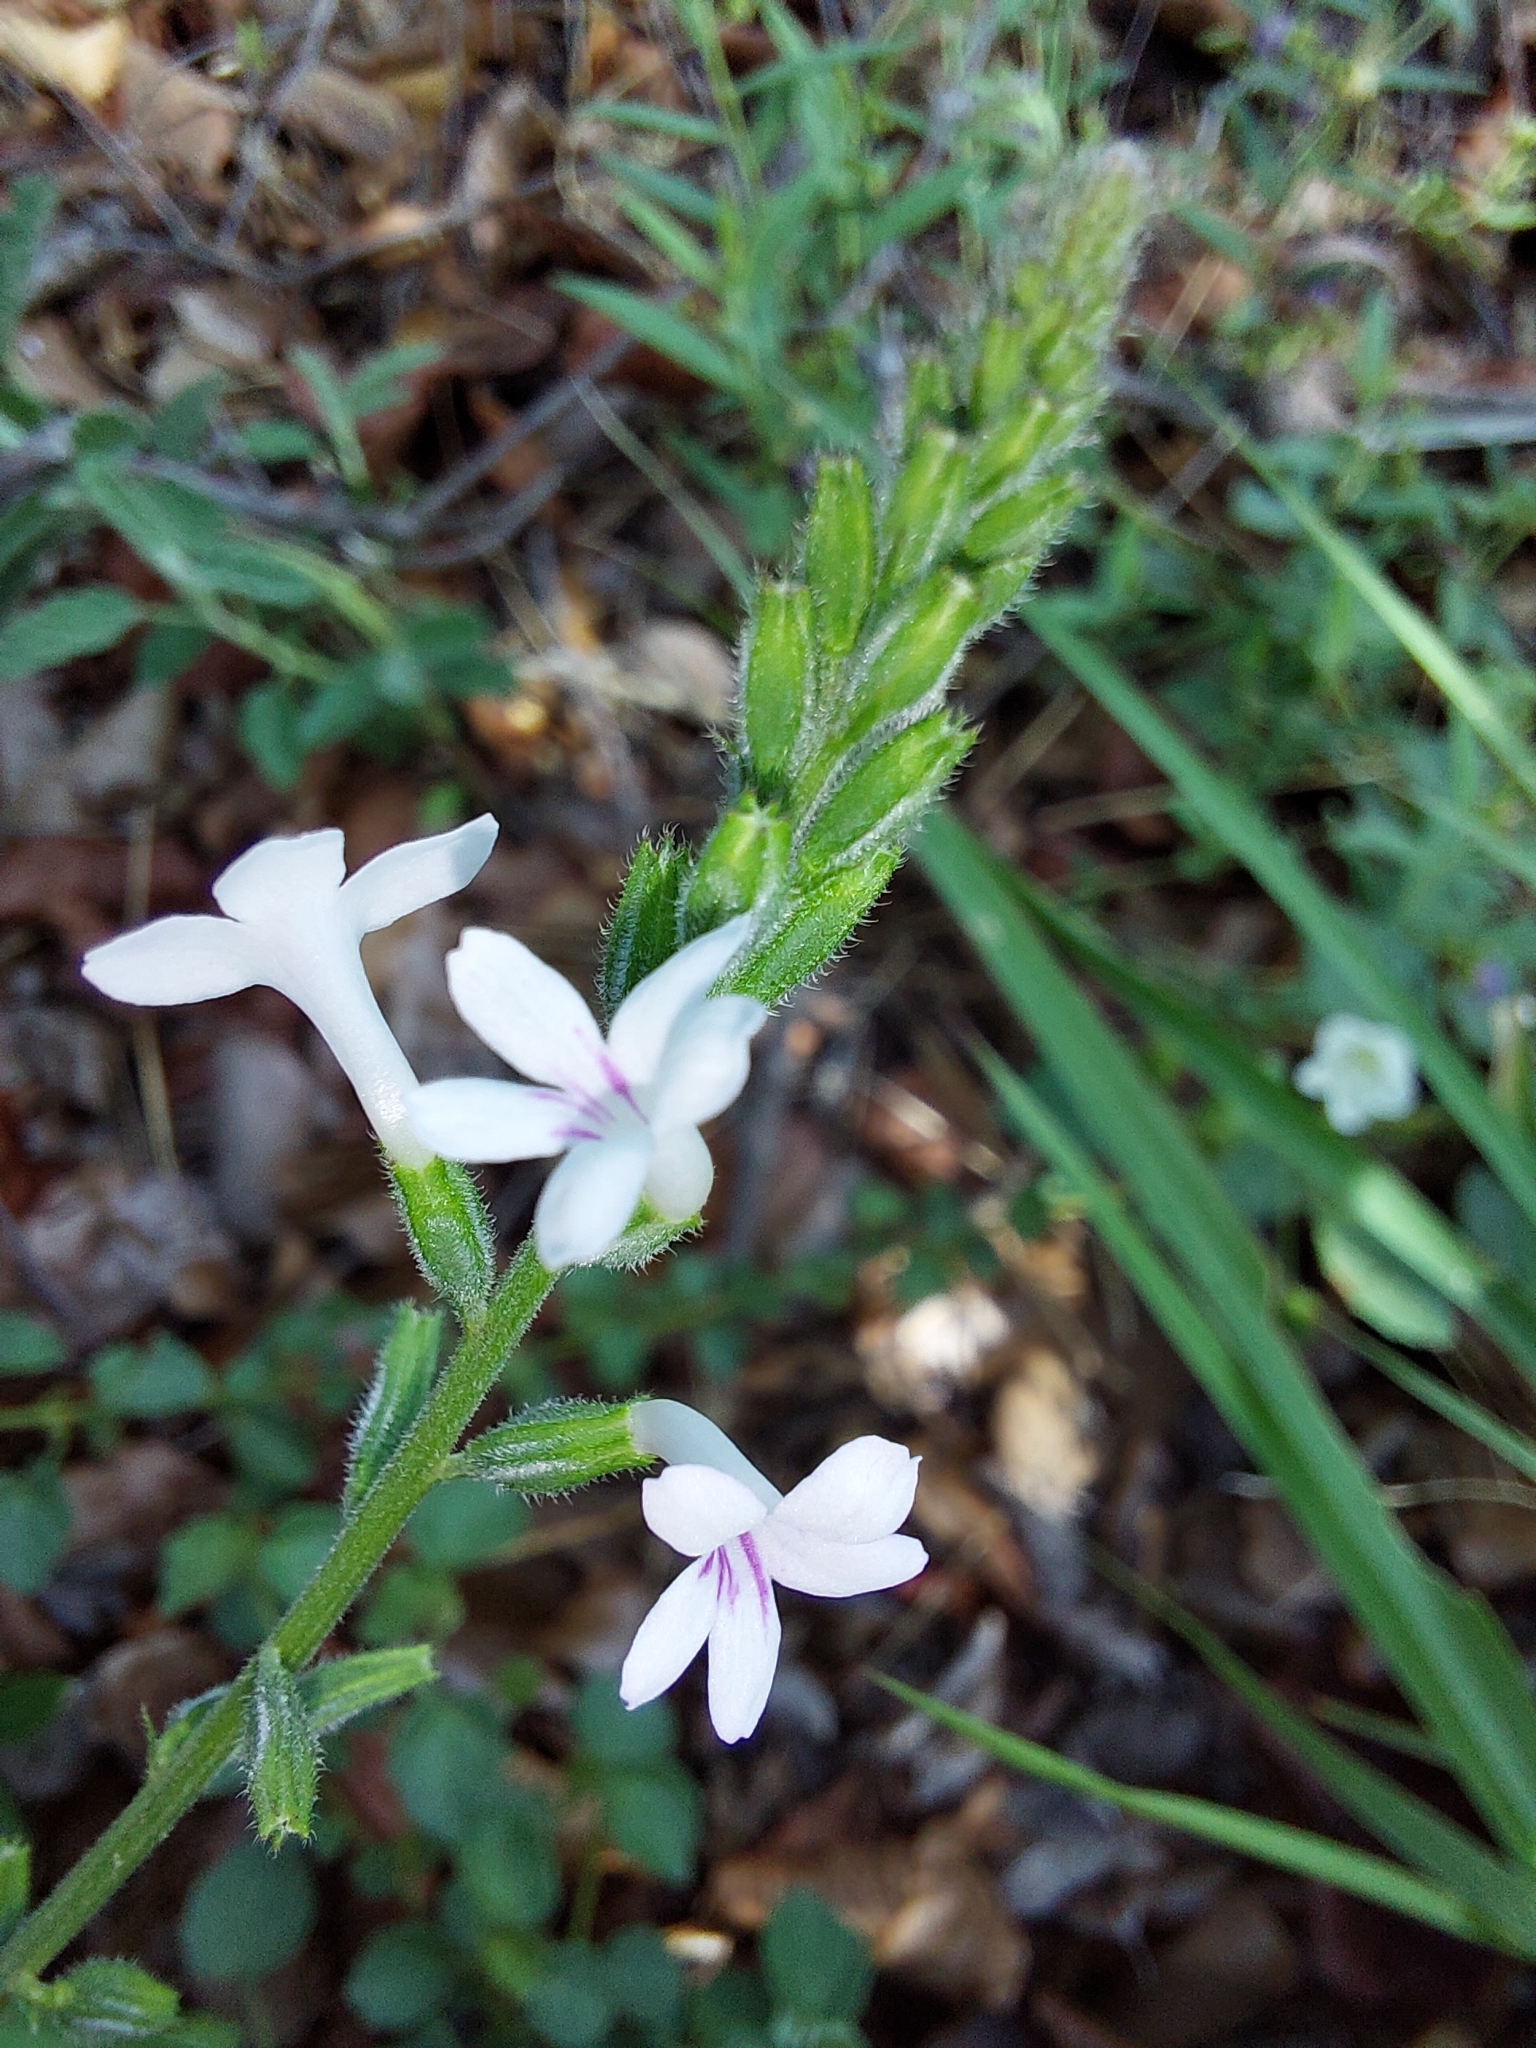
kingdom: Plantae
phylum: Tracheophyta
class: Magnoliopsida
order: Lamiales
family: Verbenaceae
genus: Priva
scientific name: Priva adhaerens
